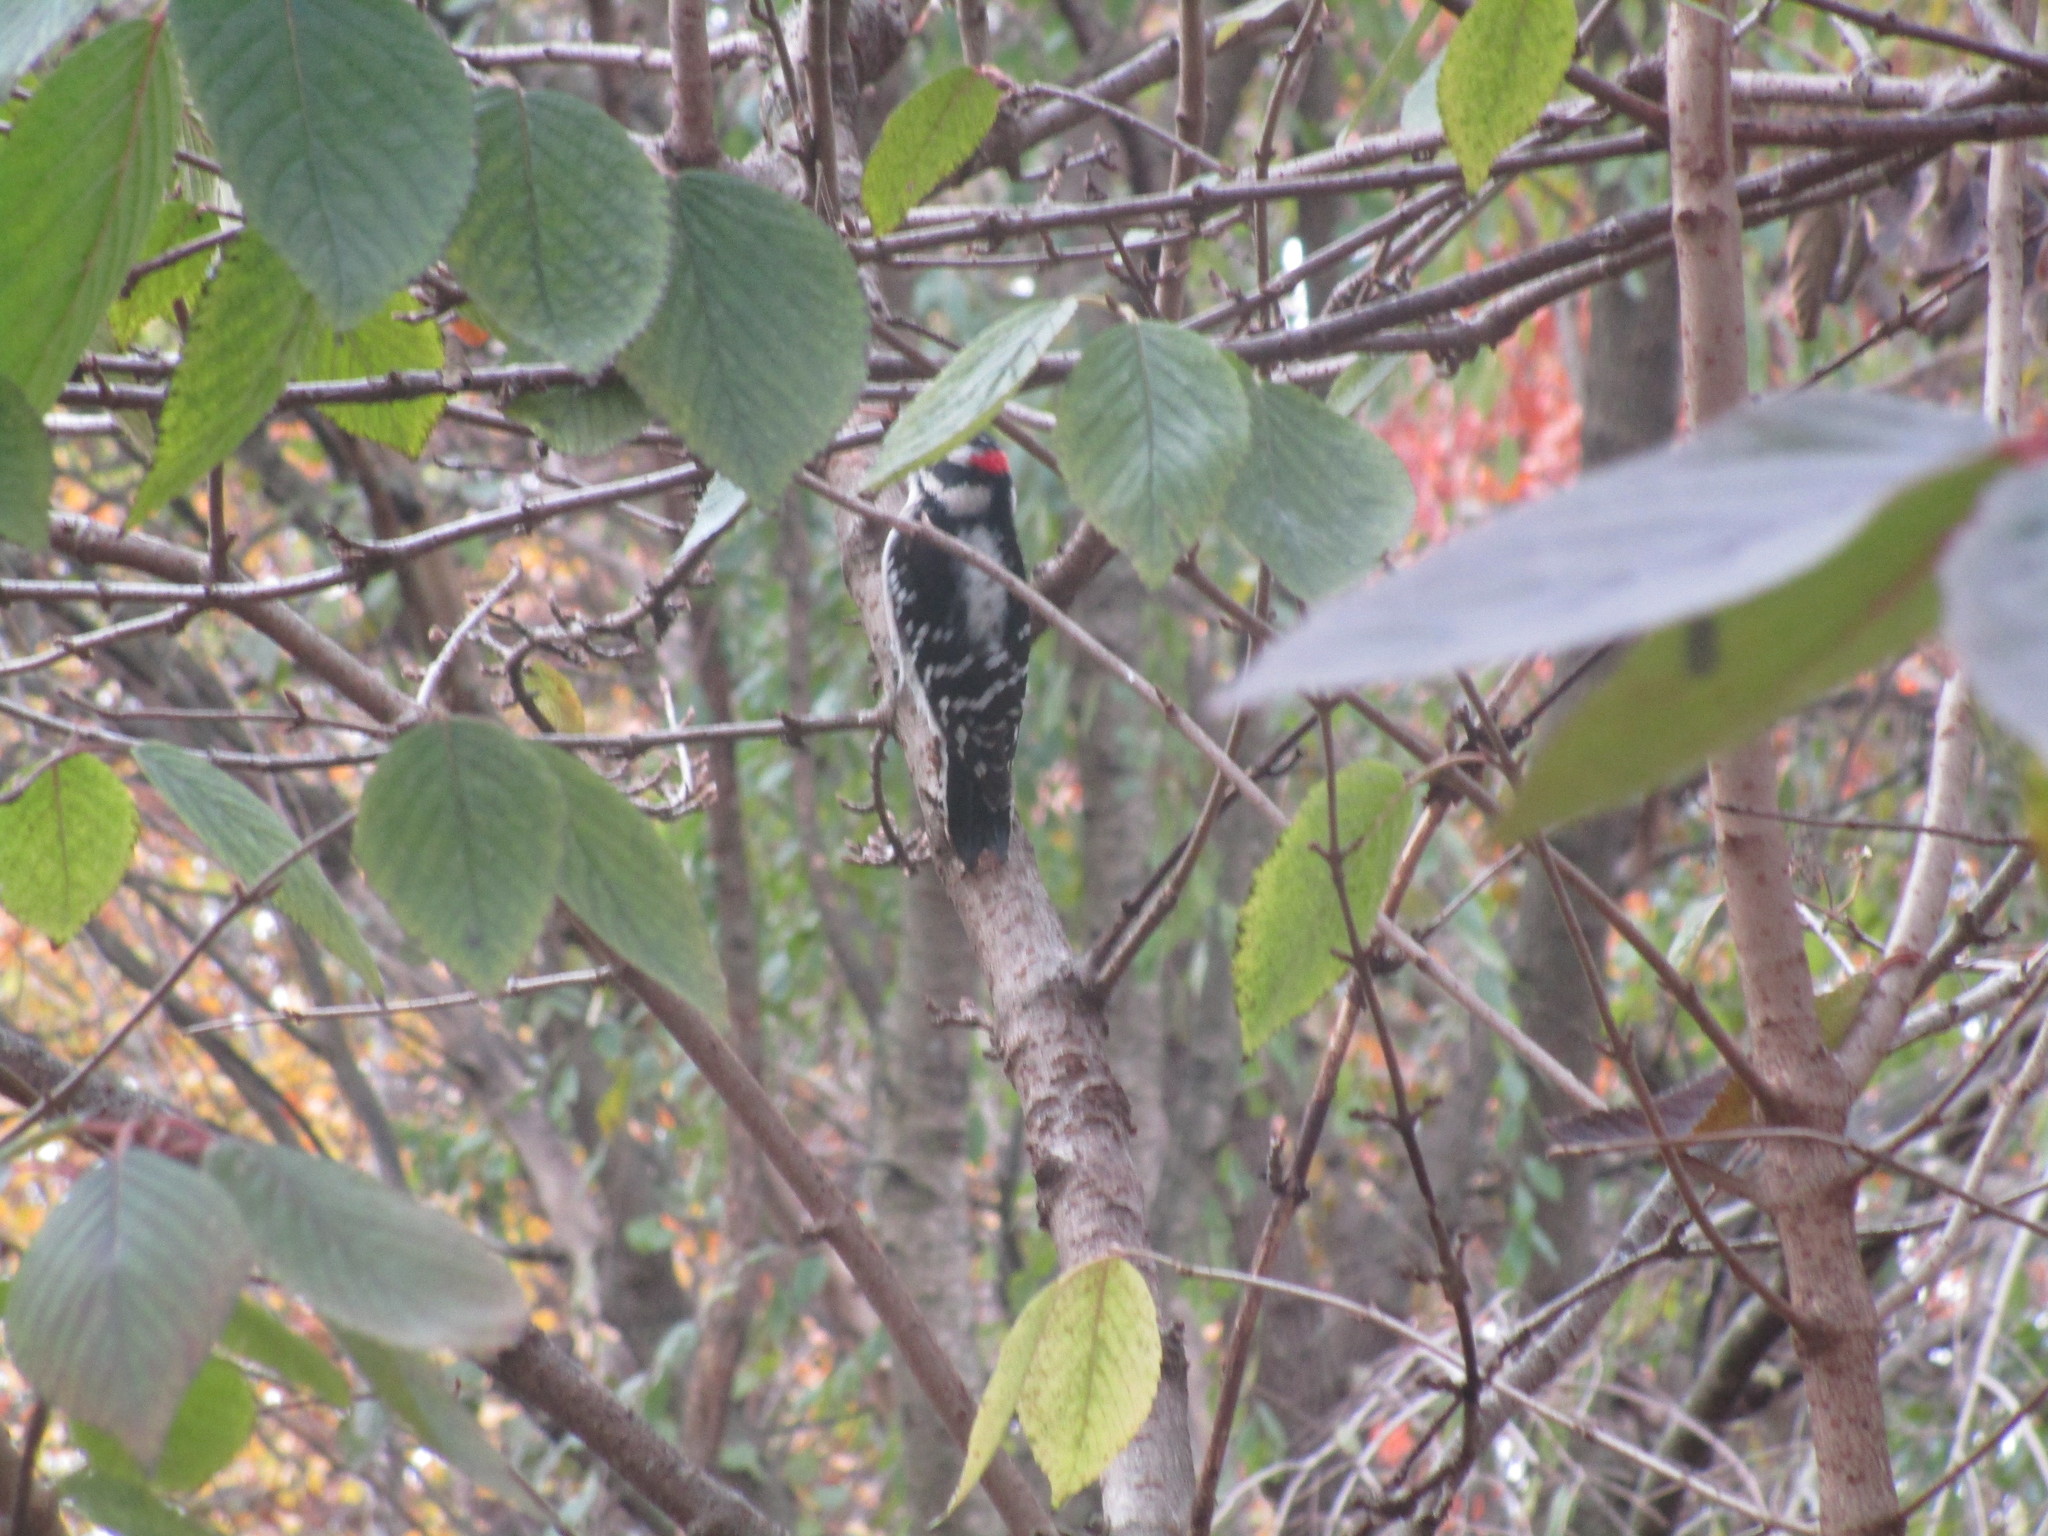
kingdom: Animalia
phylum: Chordata
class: Aves
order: Piciformes
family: Picidae
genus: Dryobates
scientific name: Dryobates pubescens
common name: Downy woodpecker
